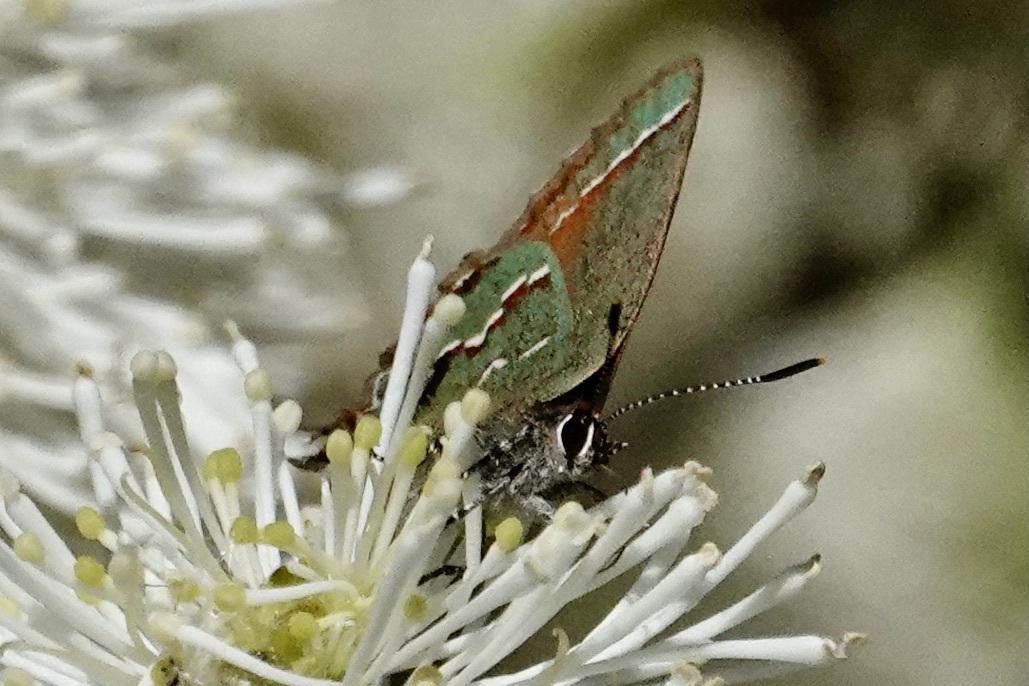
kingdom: Animalia
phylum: Arthropoda
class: Insecta
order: Lepidoptera
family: Lycaenidae
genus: Mitoura
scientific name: Mitoura gryneus
